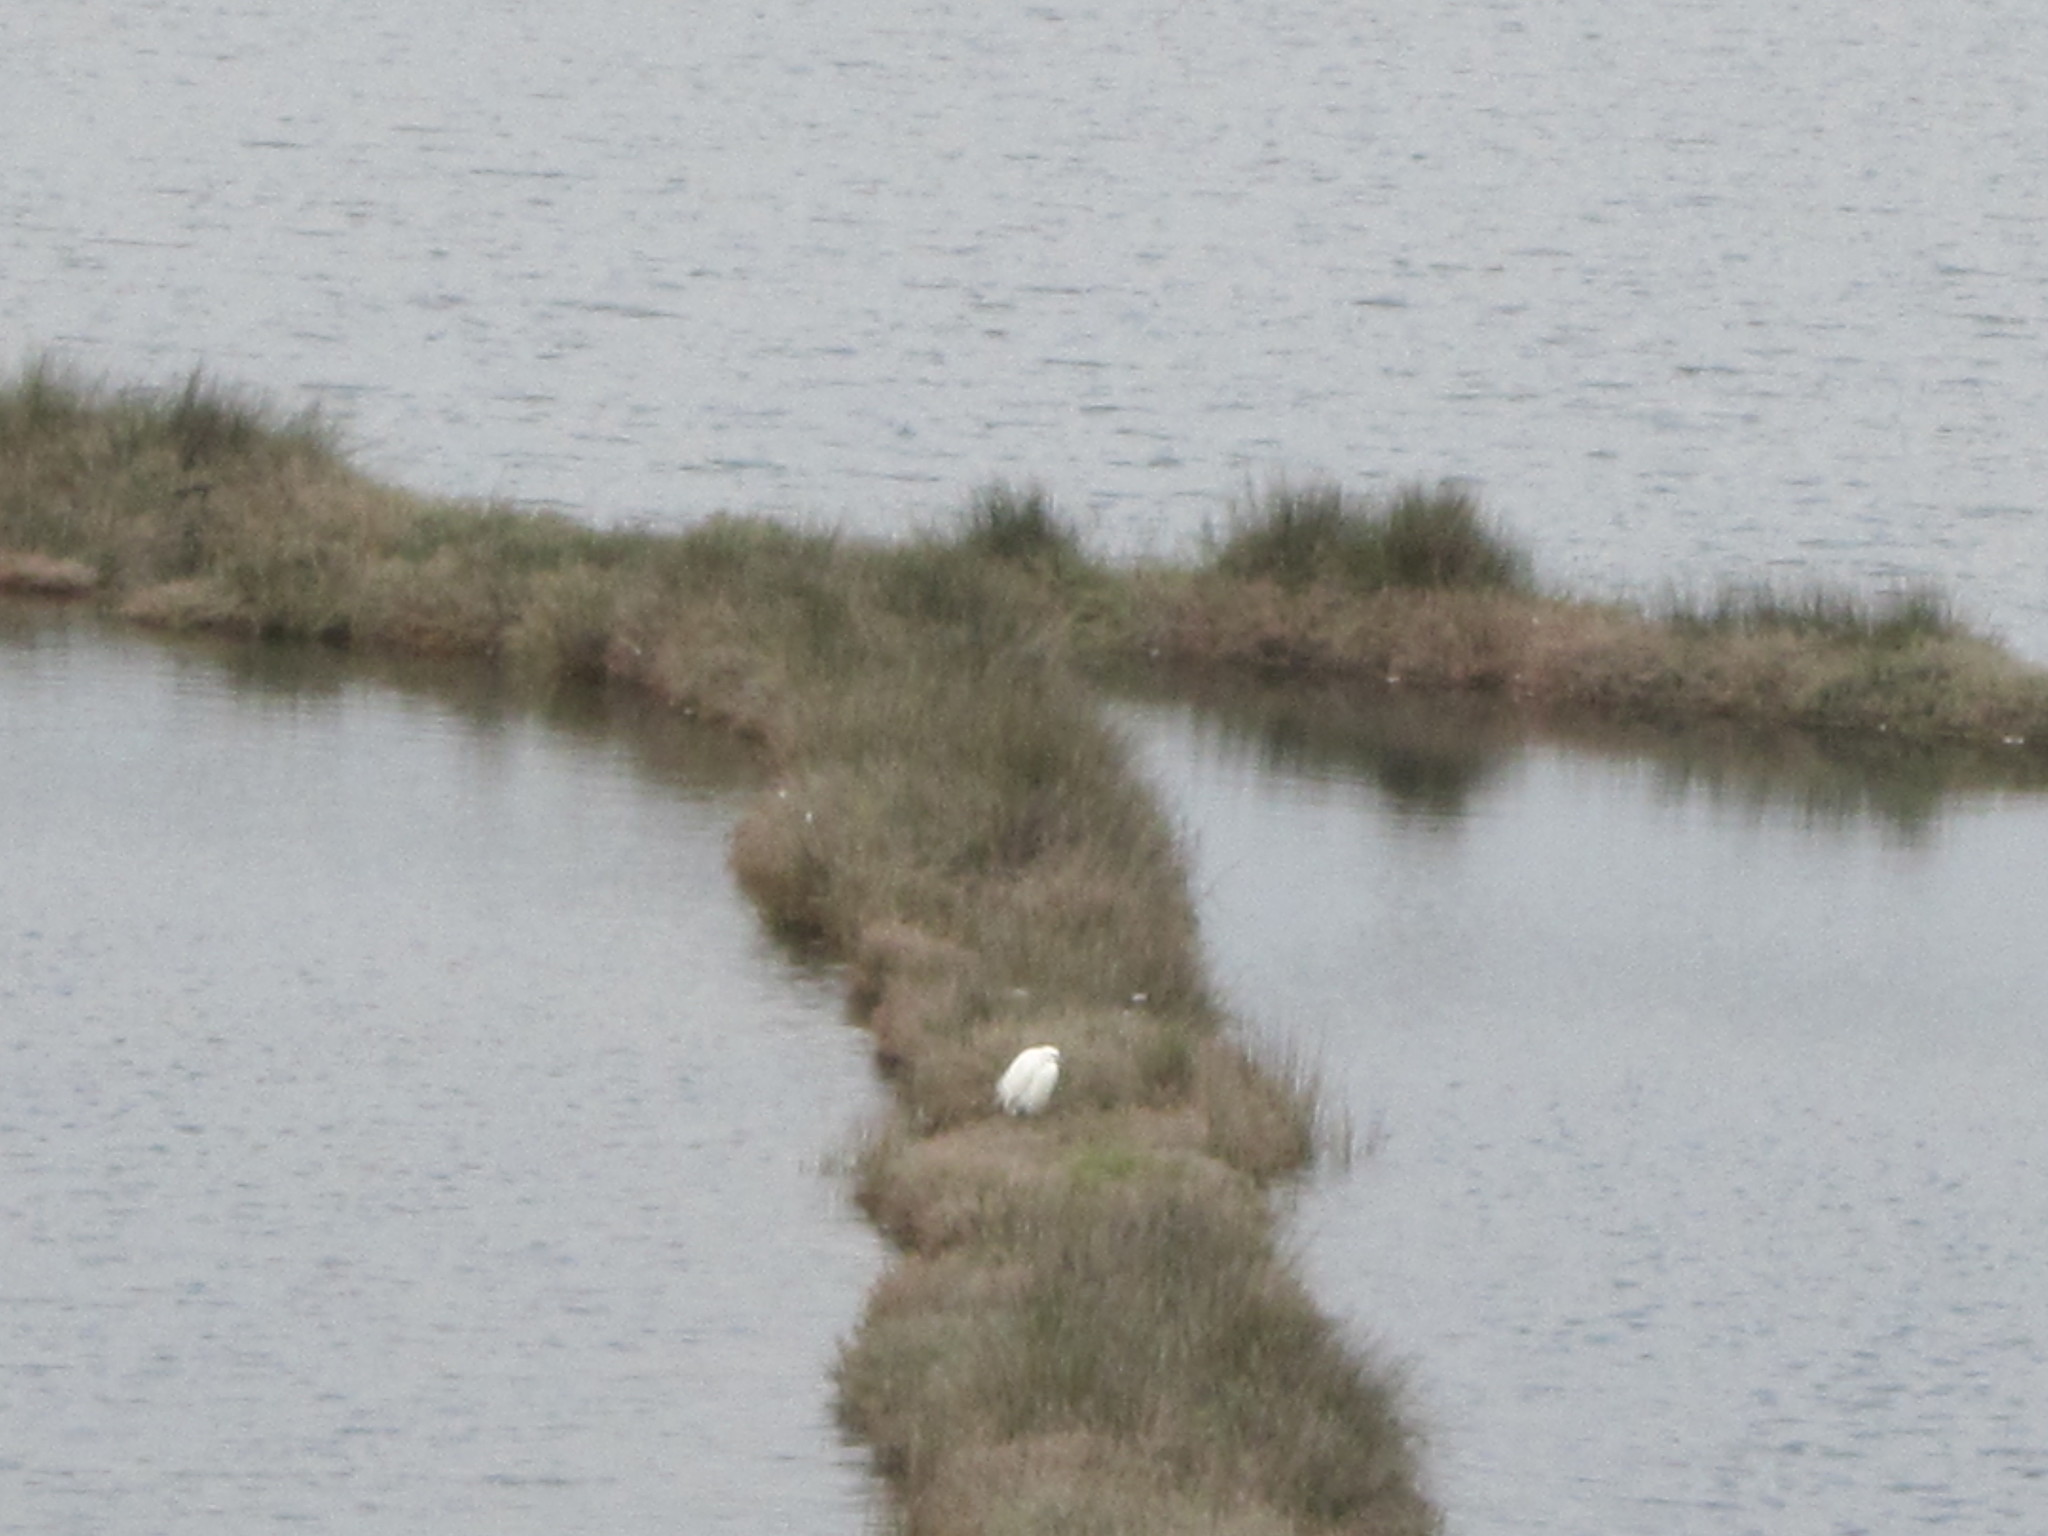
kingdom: Animalia
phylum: Chordata
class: Aves
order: Pelecaniformes
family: Ardeidae
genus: Egretta
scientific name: Egretta garzetta
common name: Little egret
